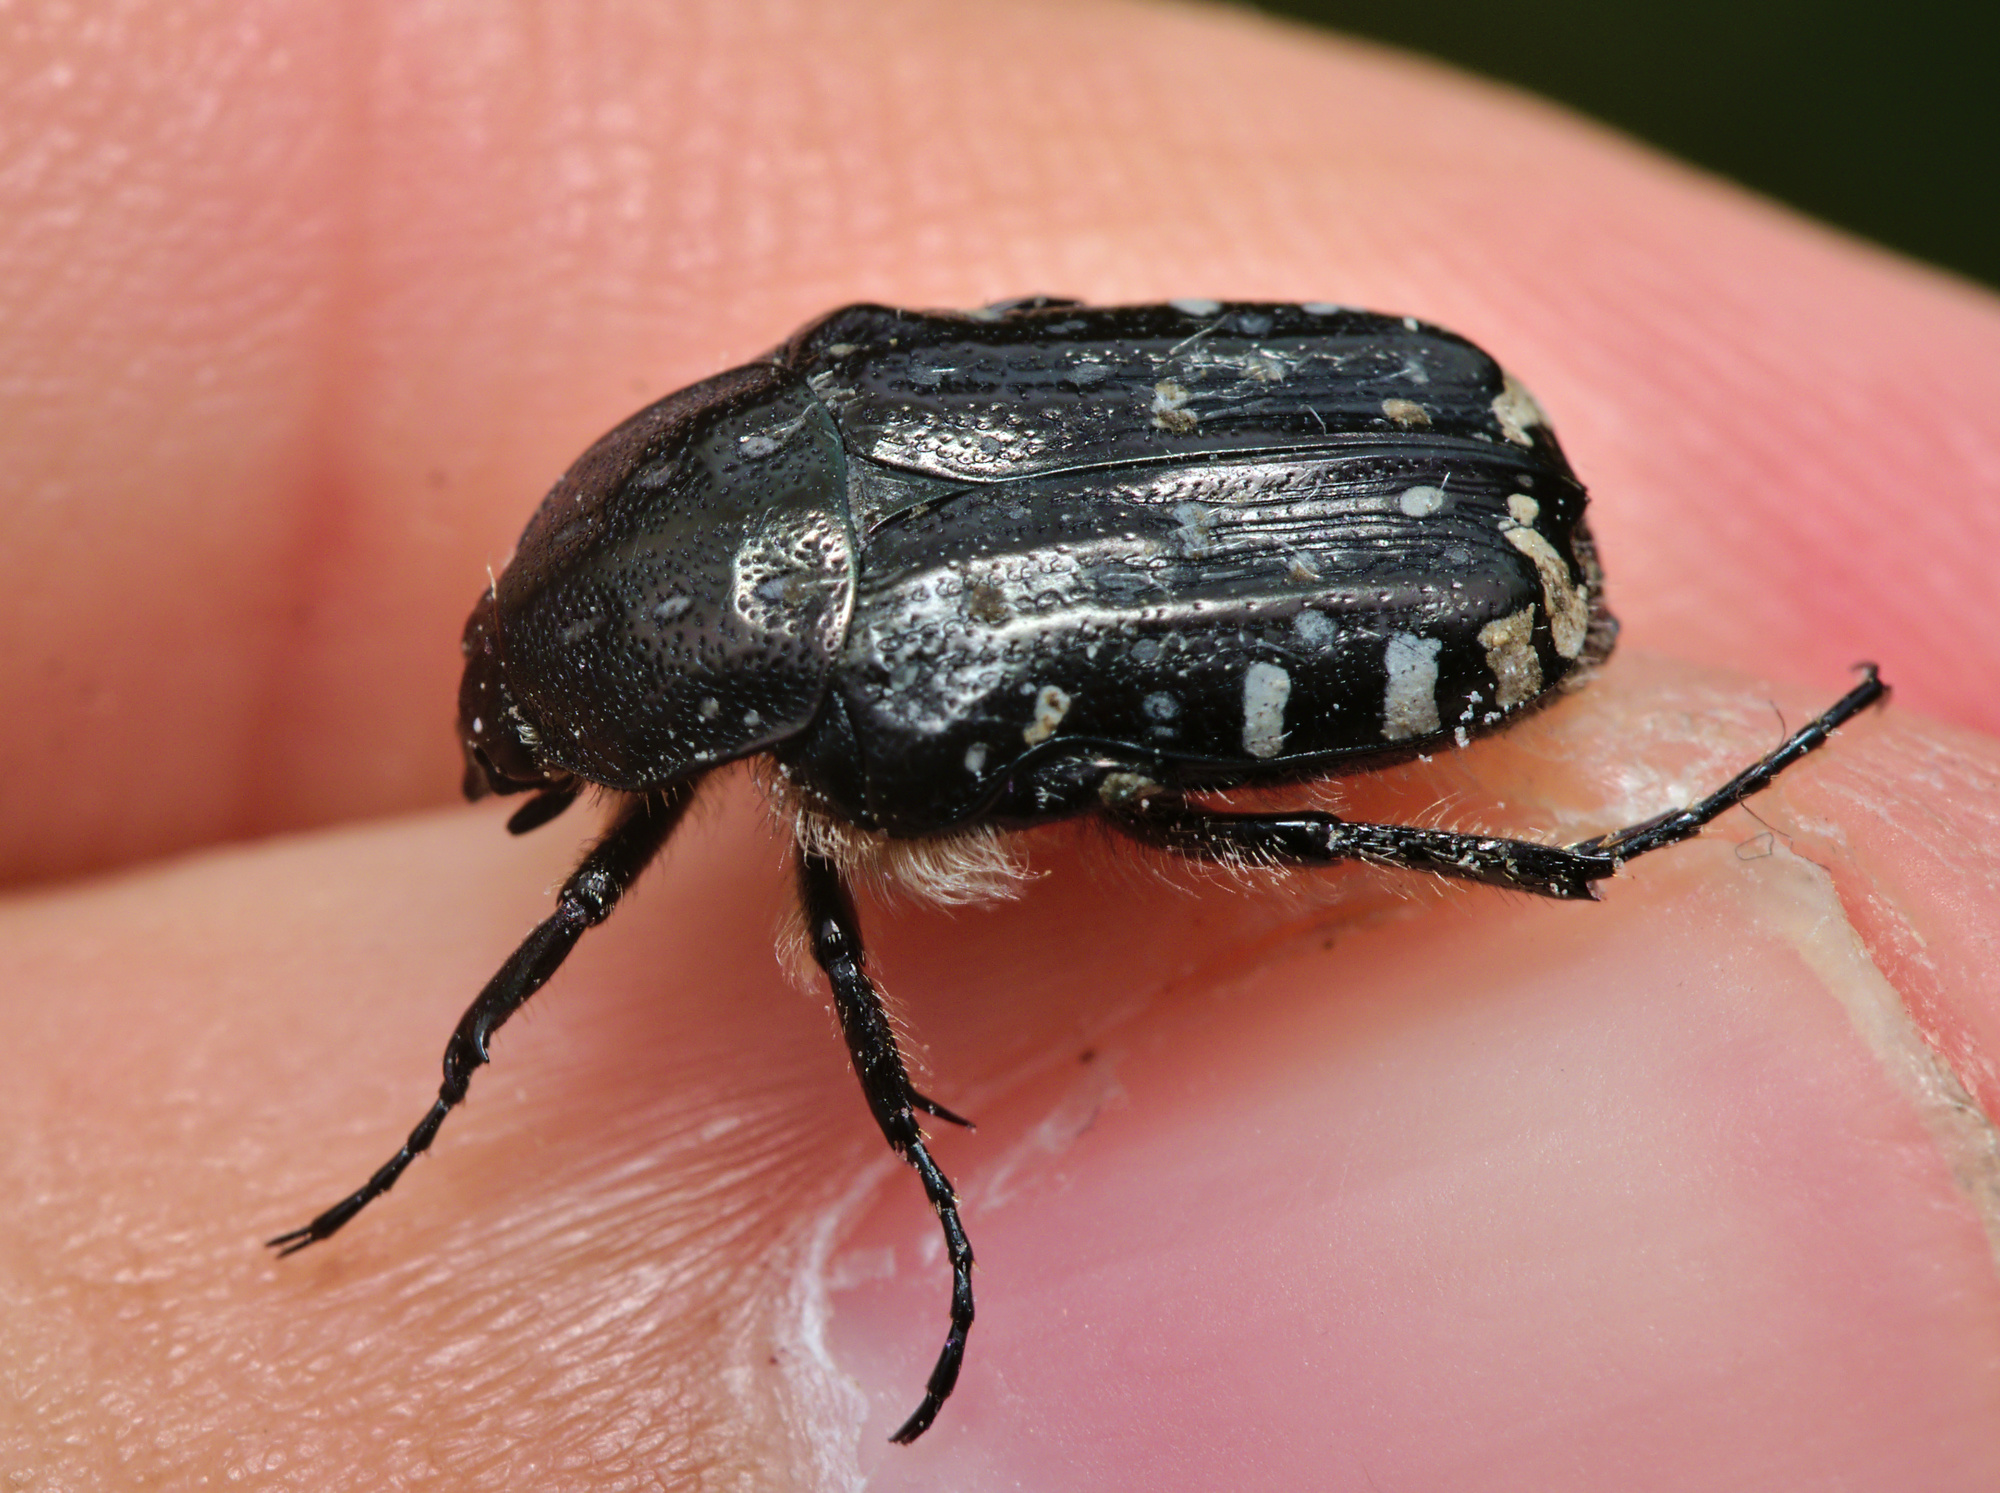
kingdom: Animalia
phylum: Arthropoda
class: Insecta
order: Coleoptera
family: Scarabaeidae
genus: Oxythyrea
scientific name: Oxythyrea funesta
